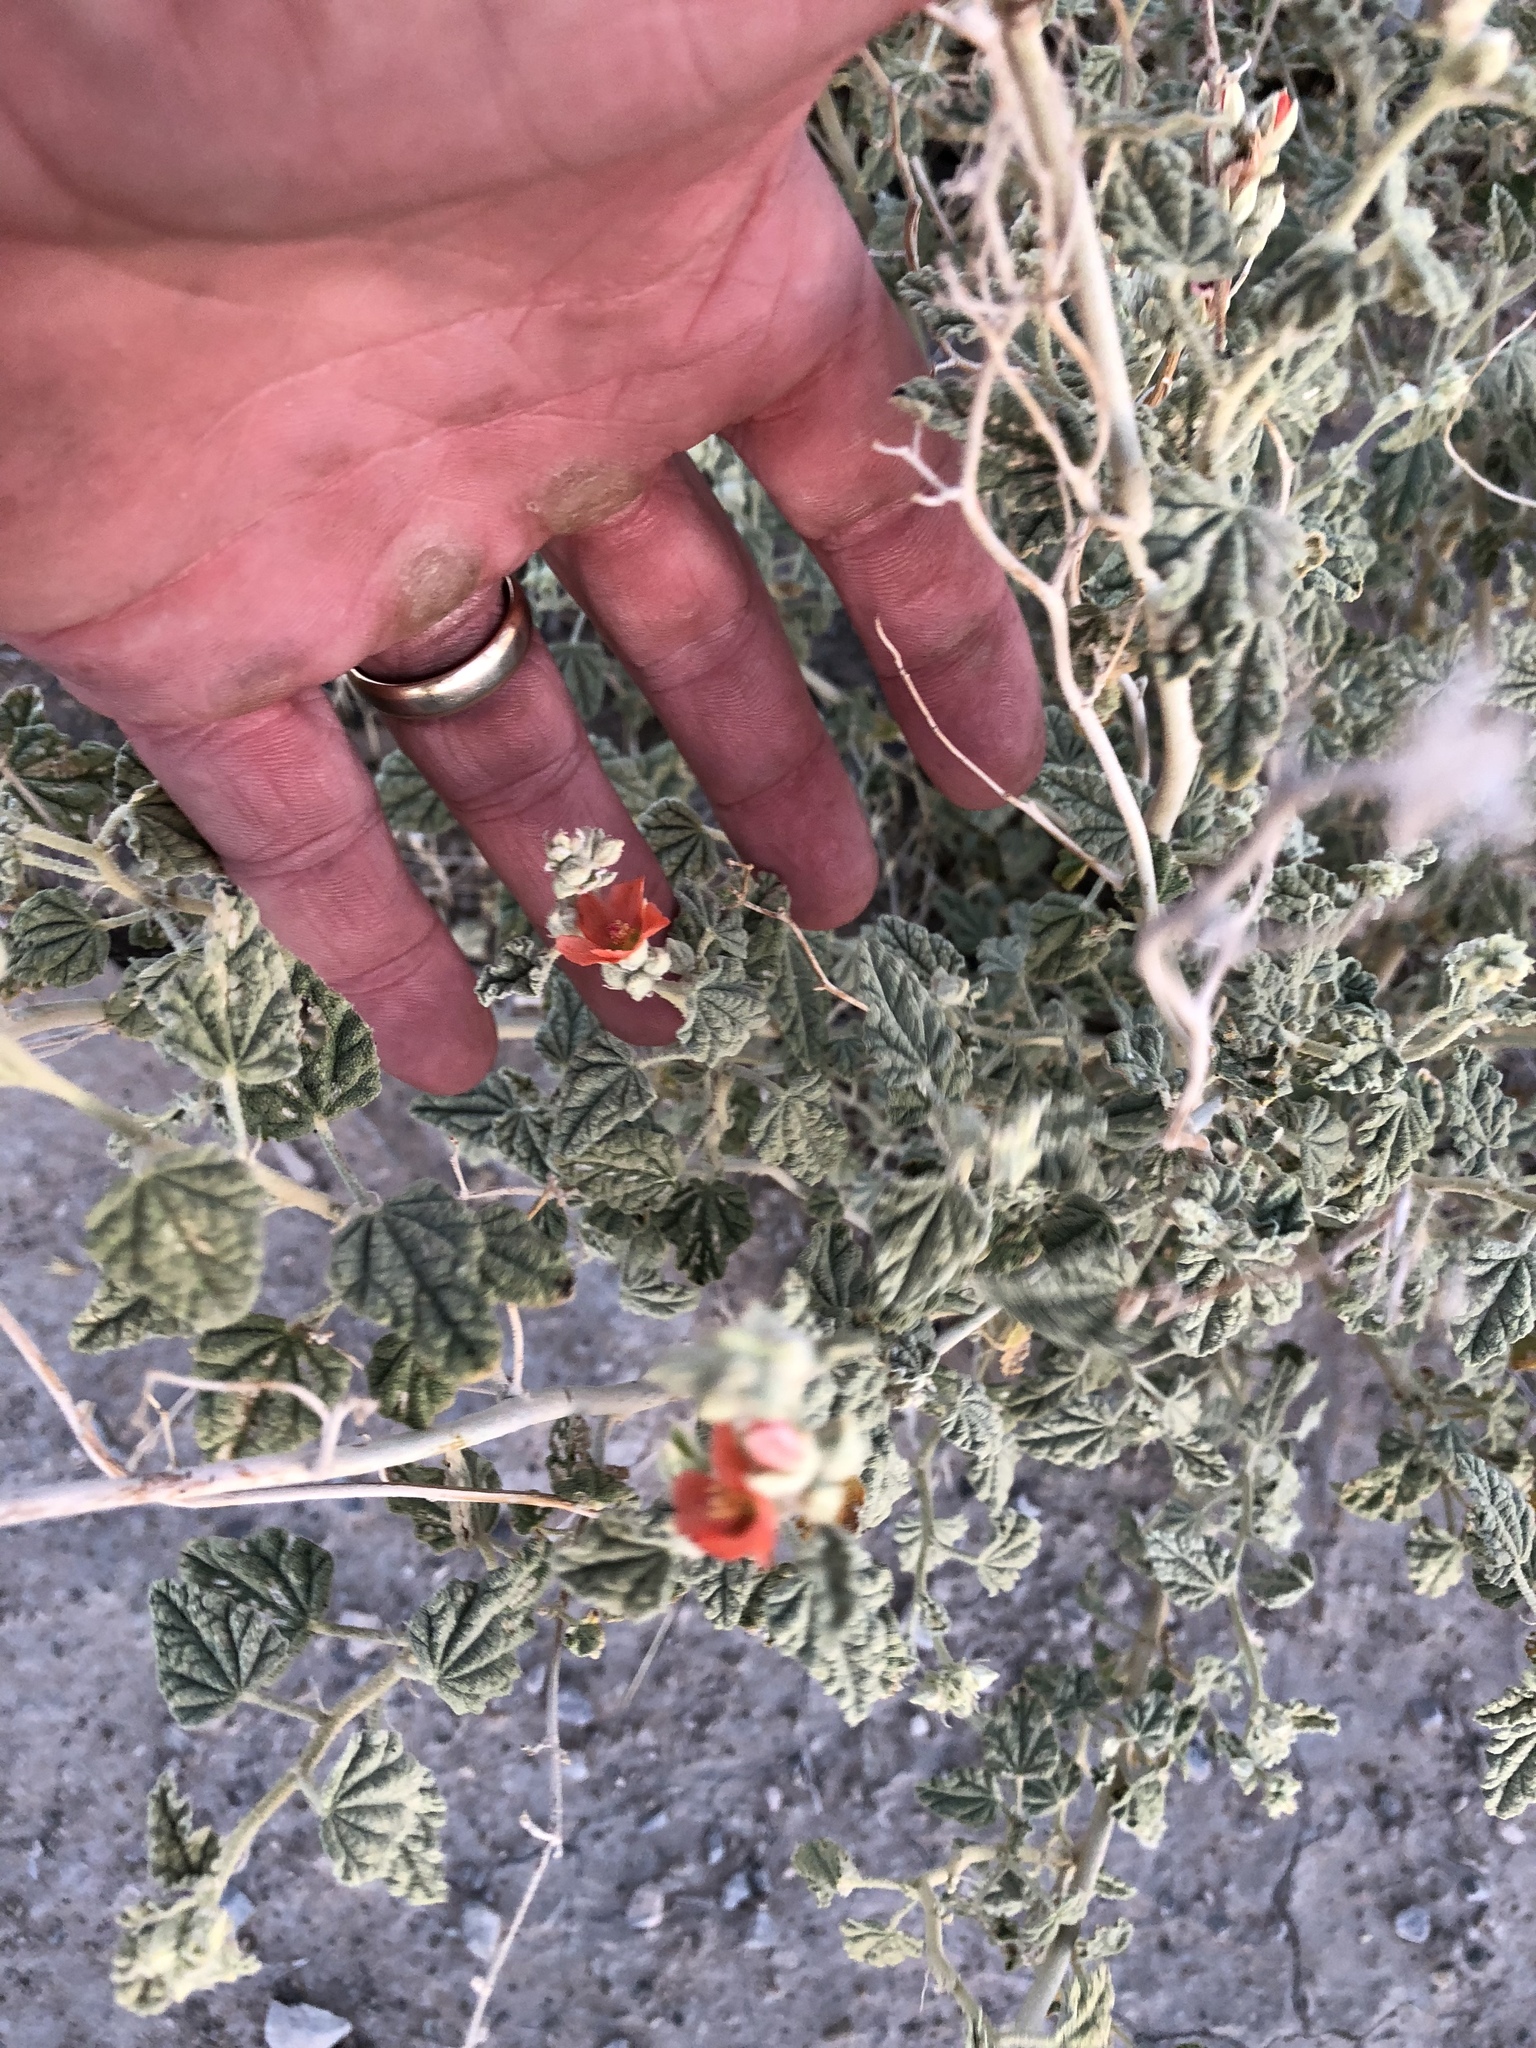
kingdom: Plantae
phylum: Tracheophyta
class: Magnoliopsida
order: Malvales
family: Malvaceae
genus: Sphaeralcea
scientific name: Sphaeralcea ambigua
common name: Apricot globe-mallow
